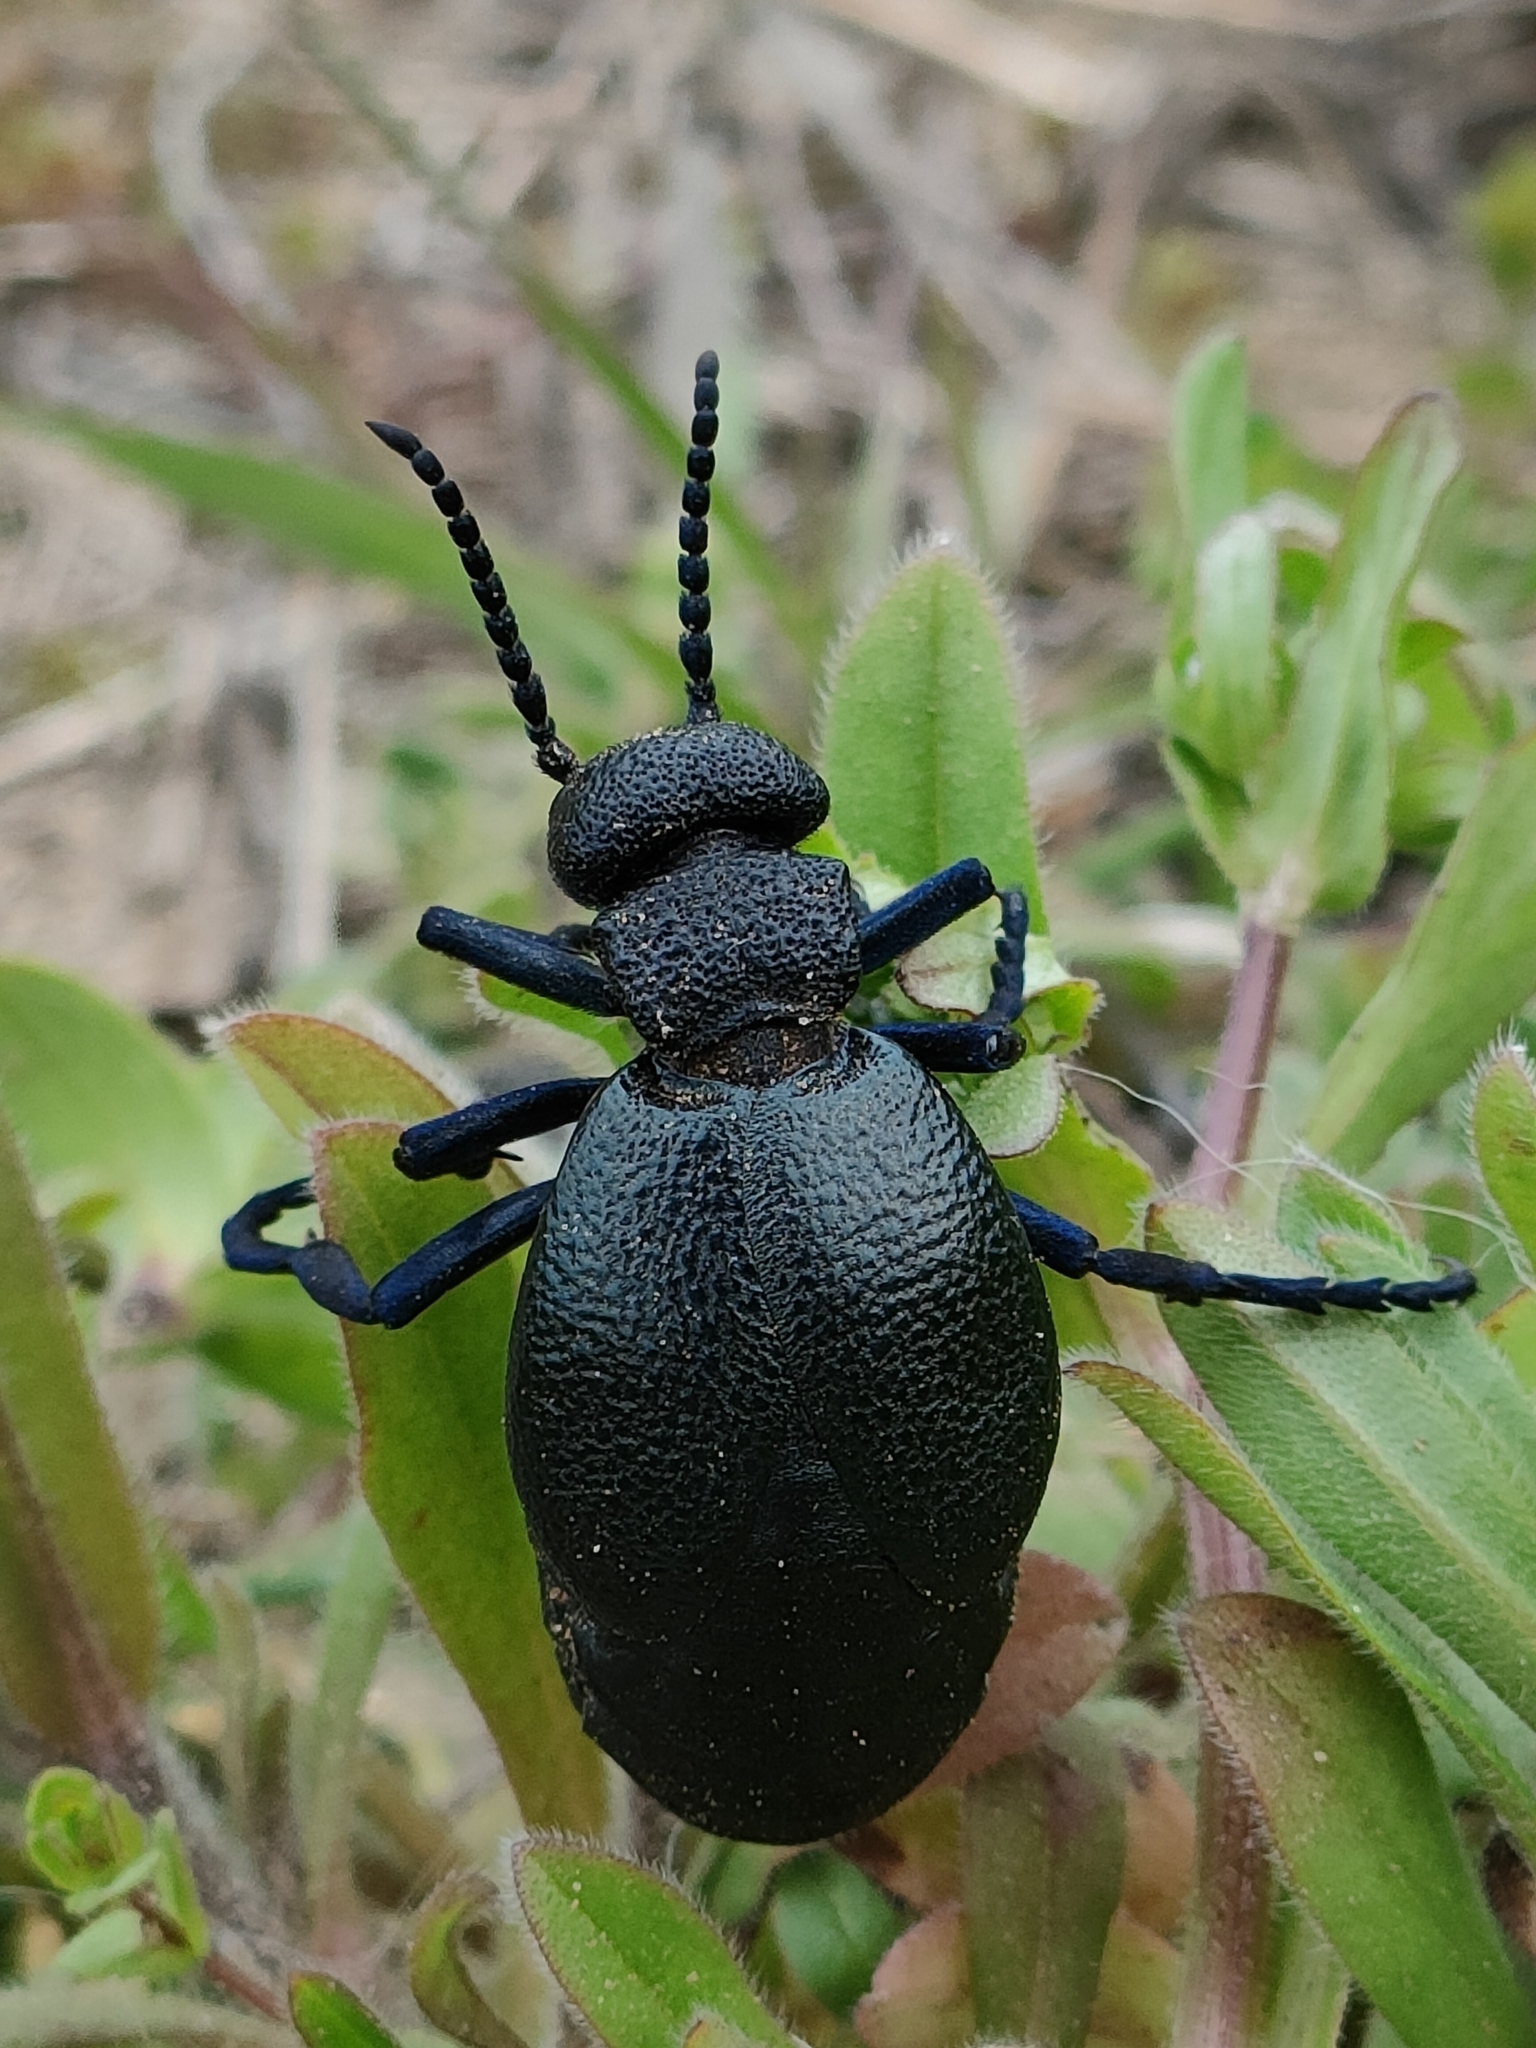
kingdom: Animalia
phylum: Arthropoda
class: Insecta
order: Coleoptera
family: Meloidae
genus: Meloe
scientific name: Meloe cicatricosus
